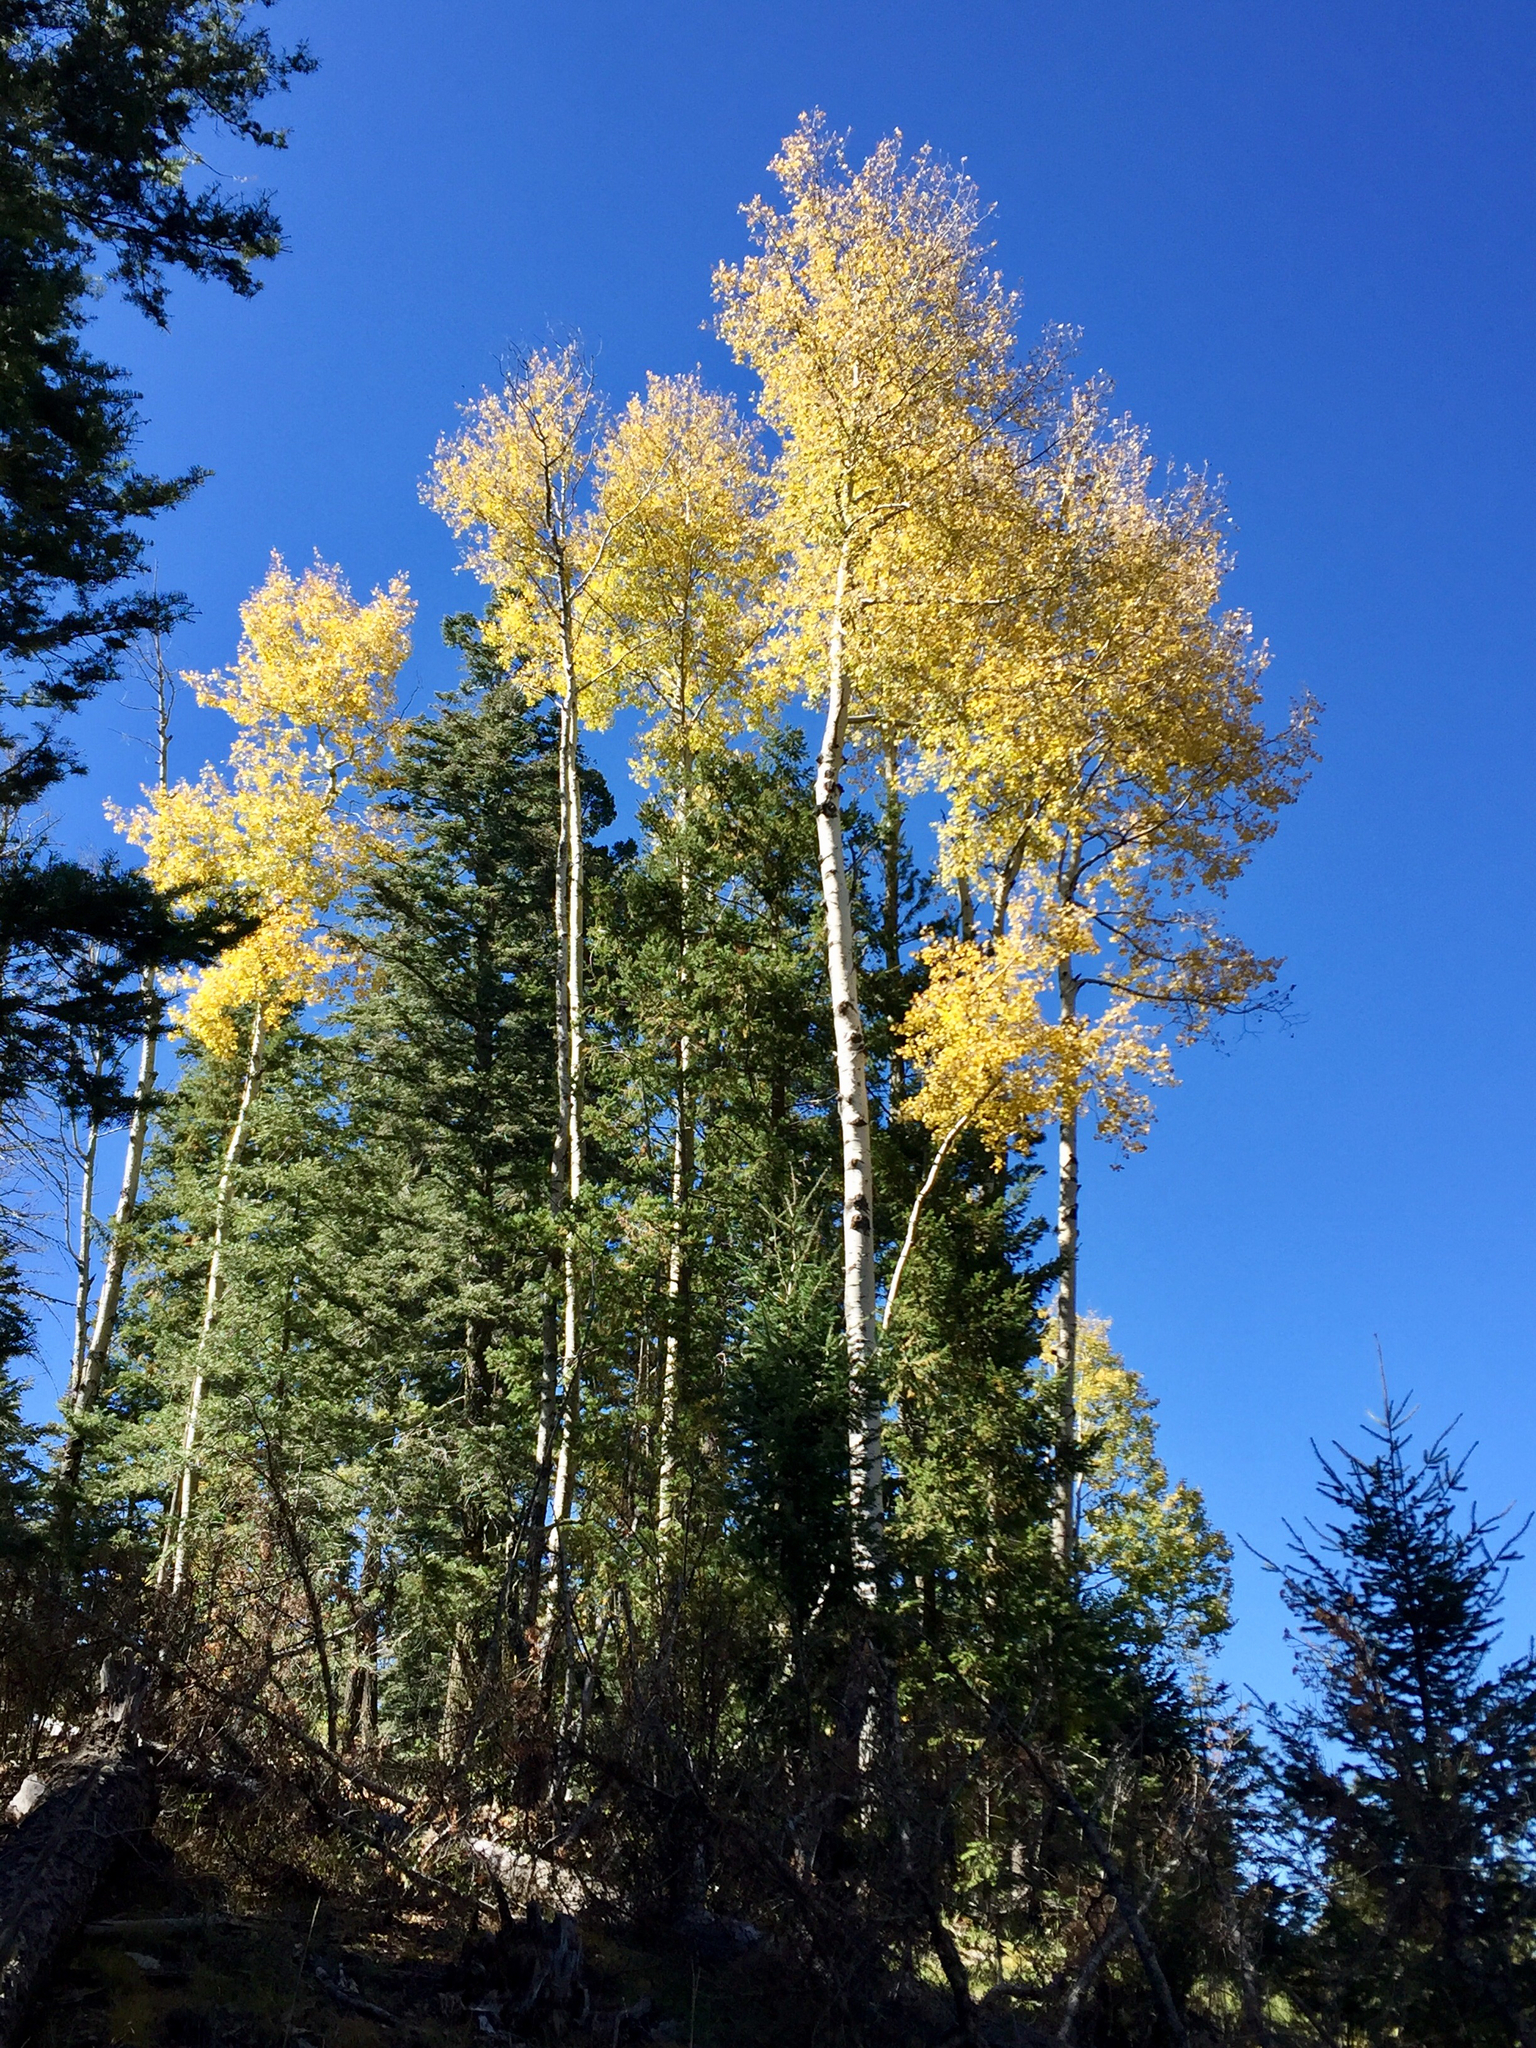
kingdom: Plantae
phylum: Tracheophyta
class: Magnoliopsida
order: Malpighiales
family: Salicaceae
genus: Populus
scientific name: Populus tremuloides
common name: Quaking aspen
